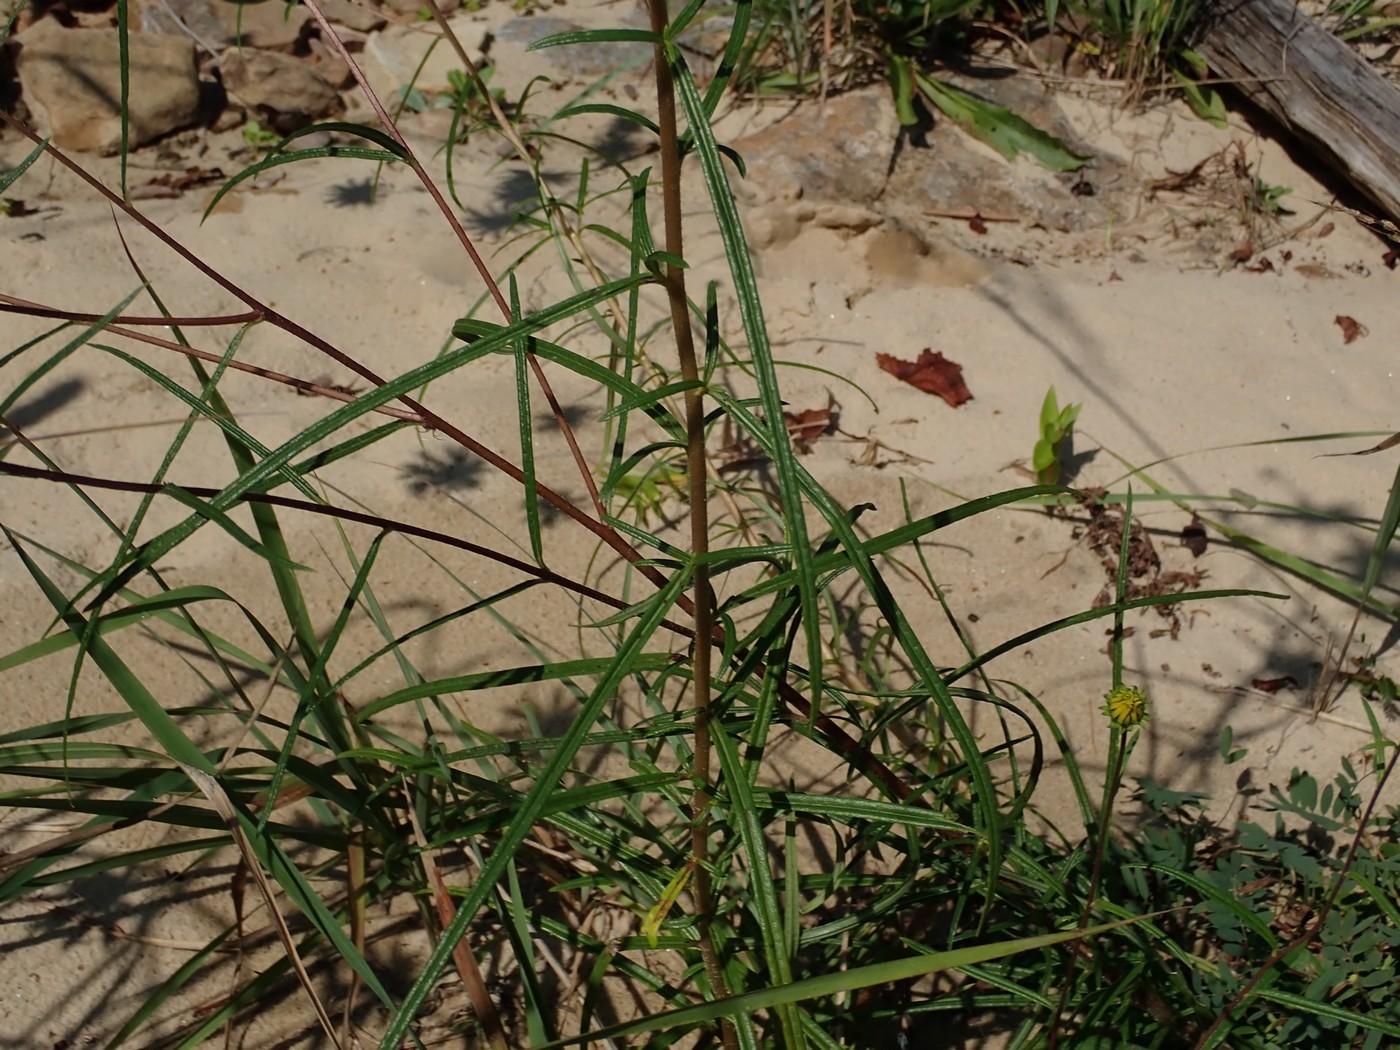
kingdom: Plantae
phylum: Tracheophyta
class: Magnoliopsida
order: Asterales
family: Asteraceae
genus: Helianthus
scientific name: Helianthus angustifolius
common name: Swamp sunflower
